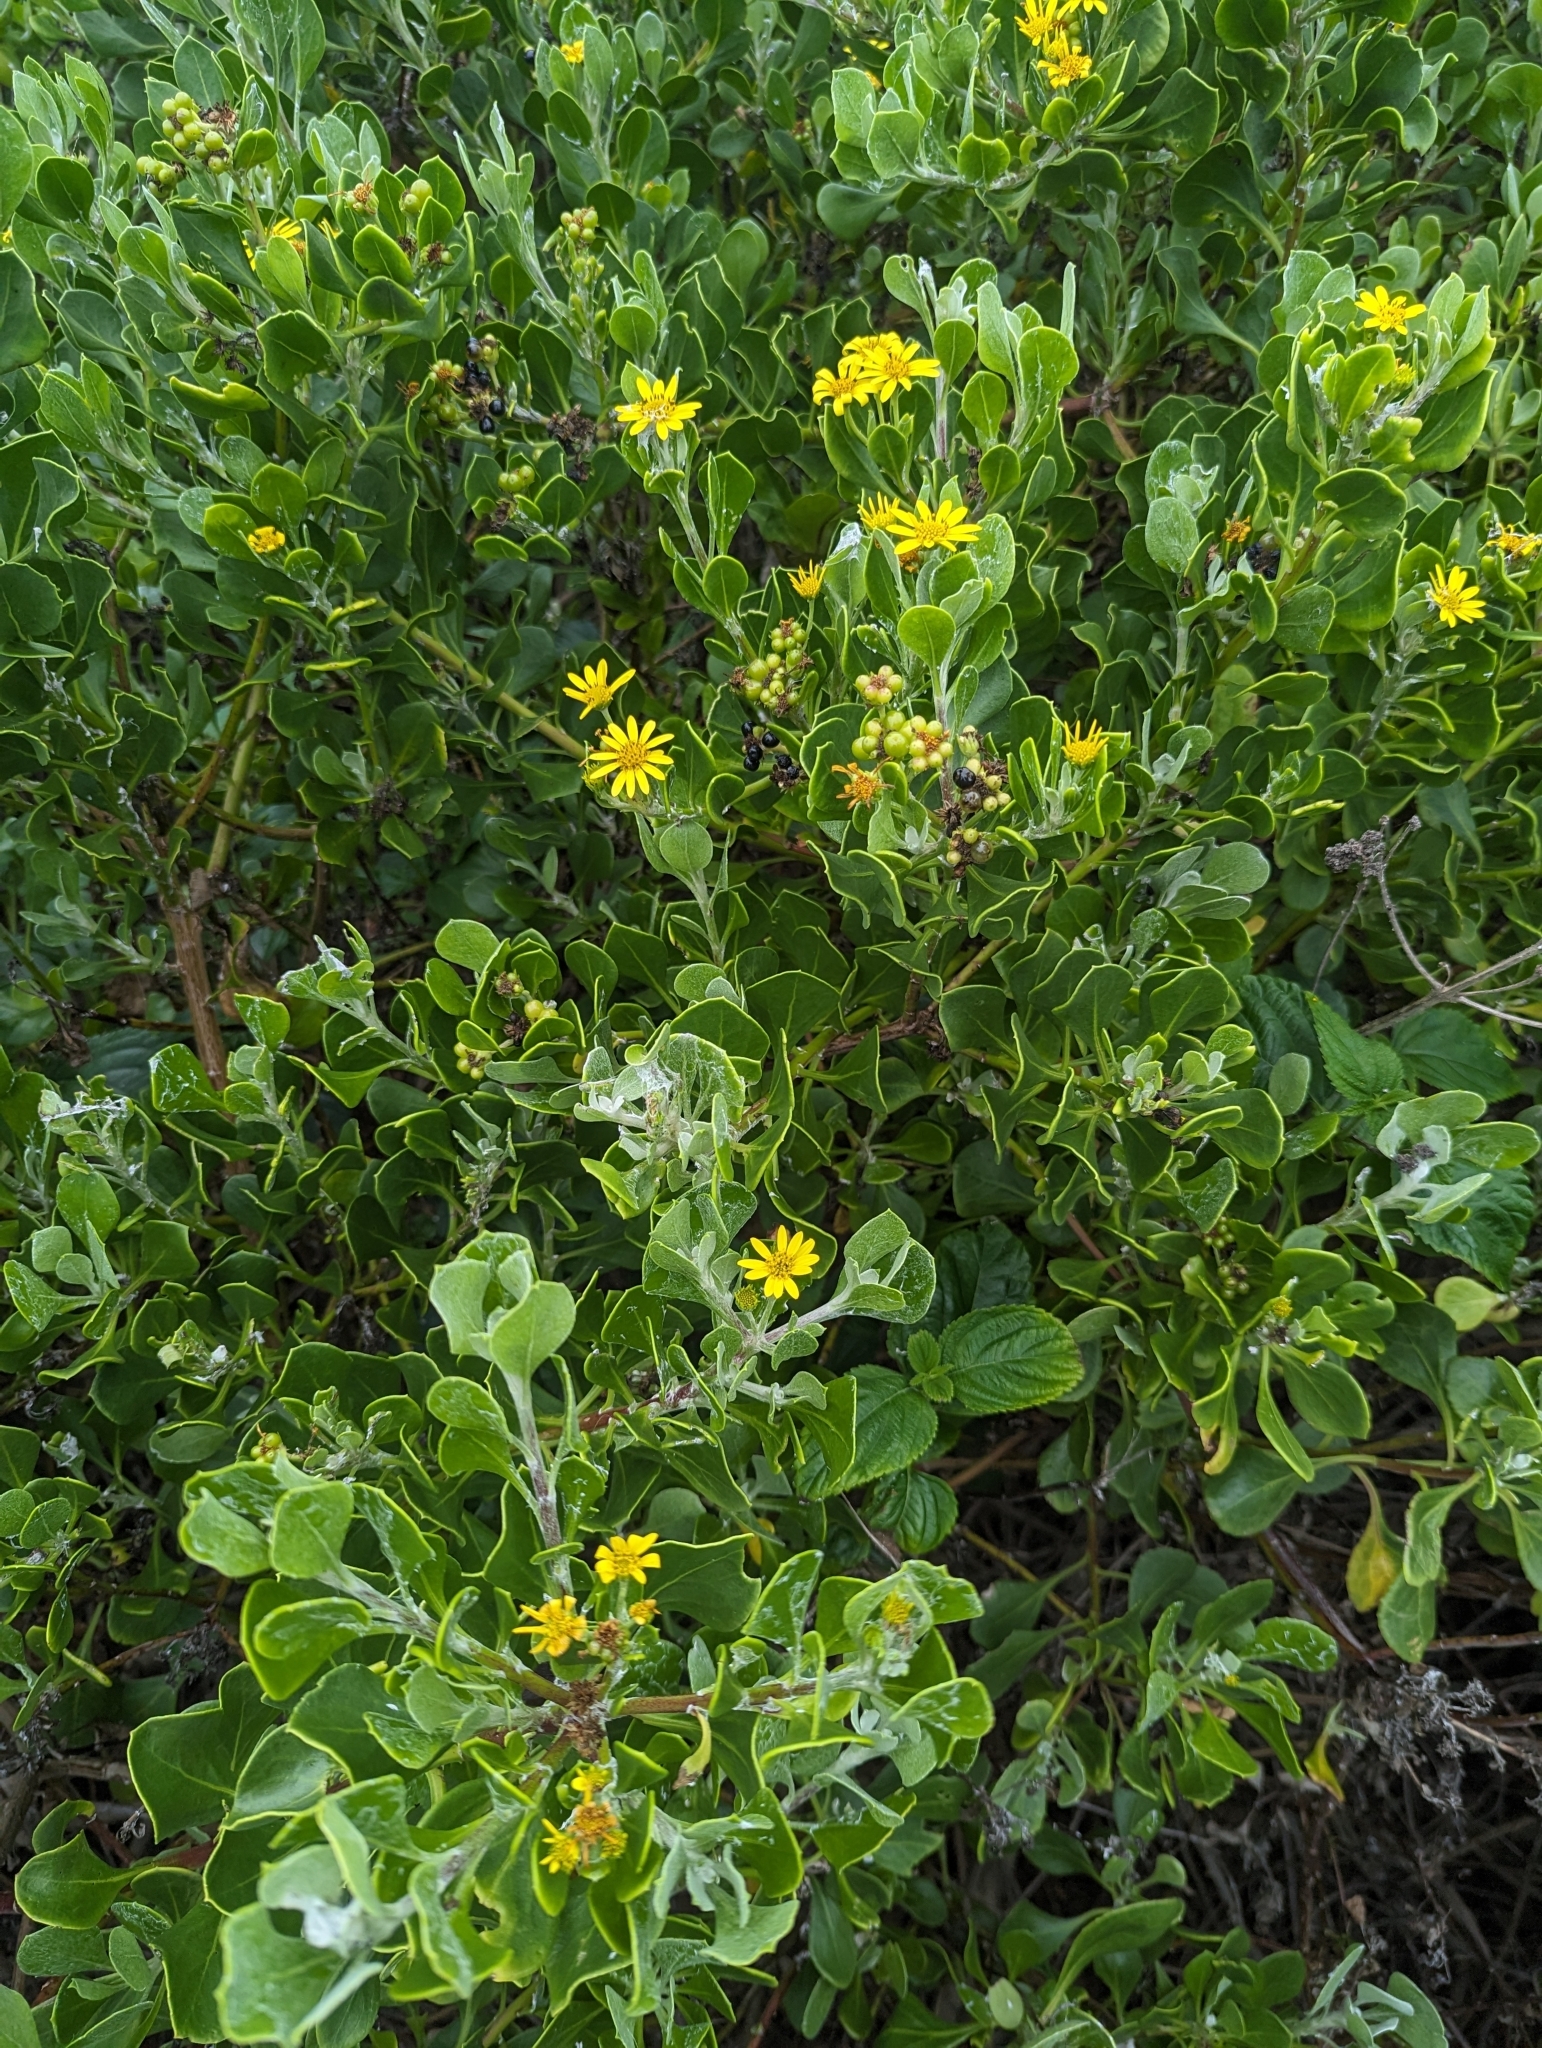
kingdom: Plantae
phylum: Tracheophyta
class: Magnoliopsida
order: Asterales
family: Asteraceae
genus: Osteospermum
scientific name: Osteospermum moniliferum
